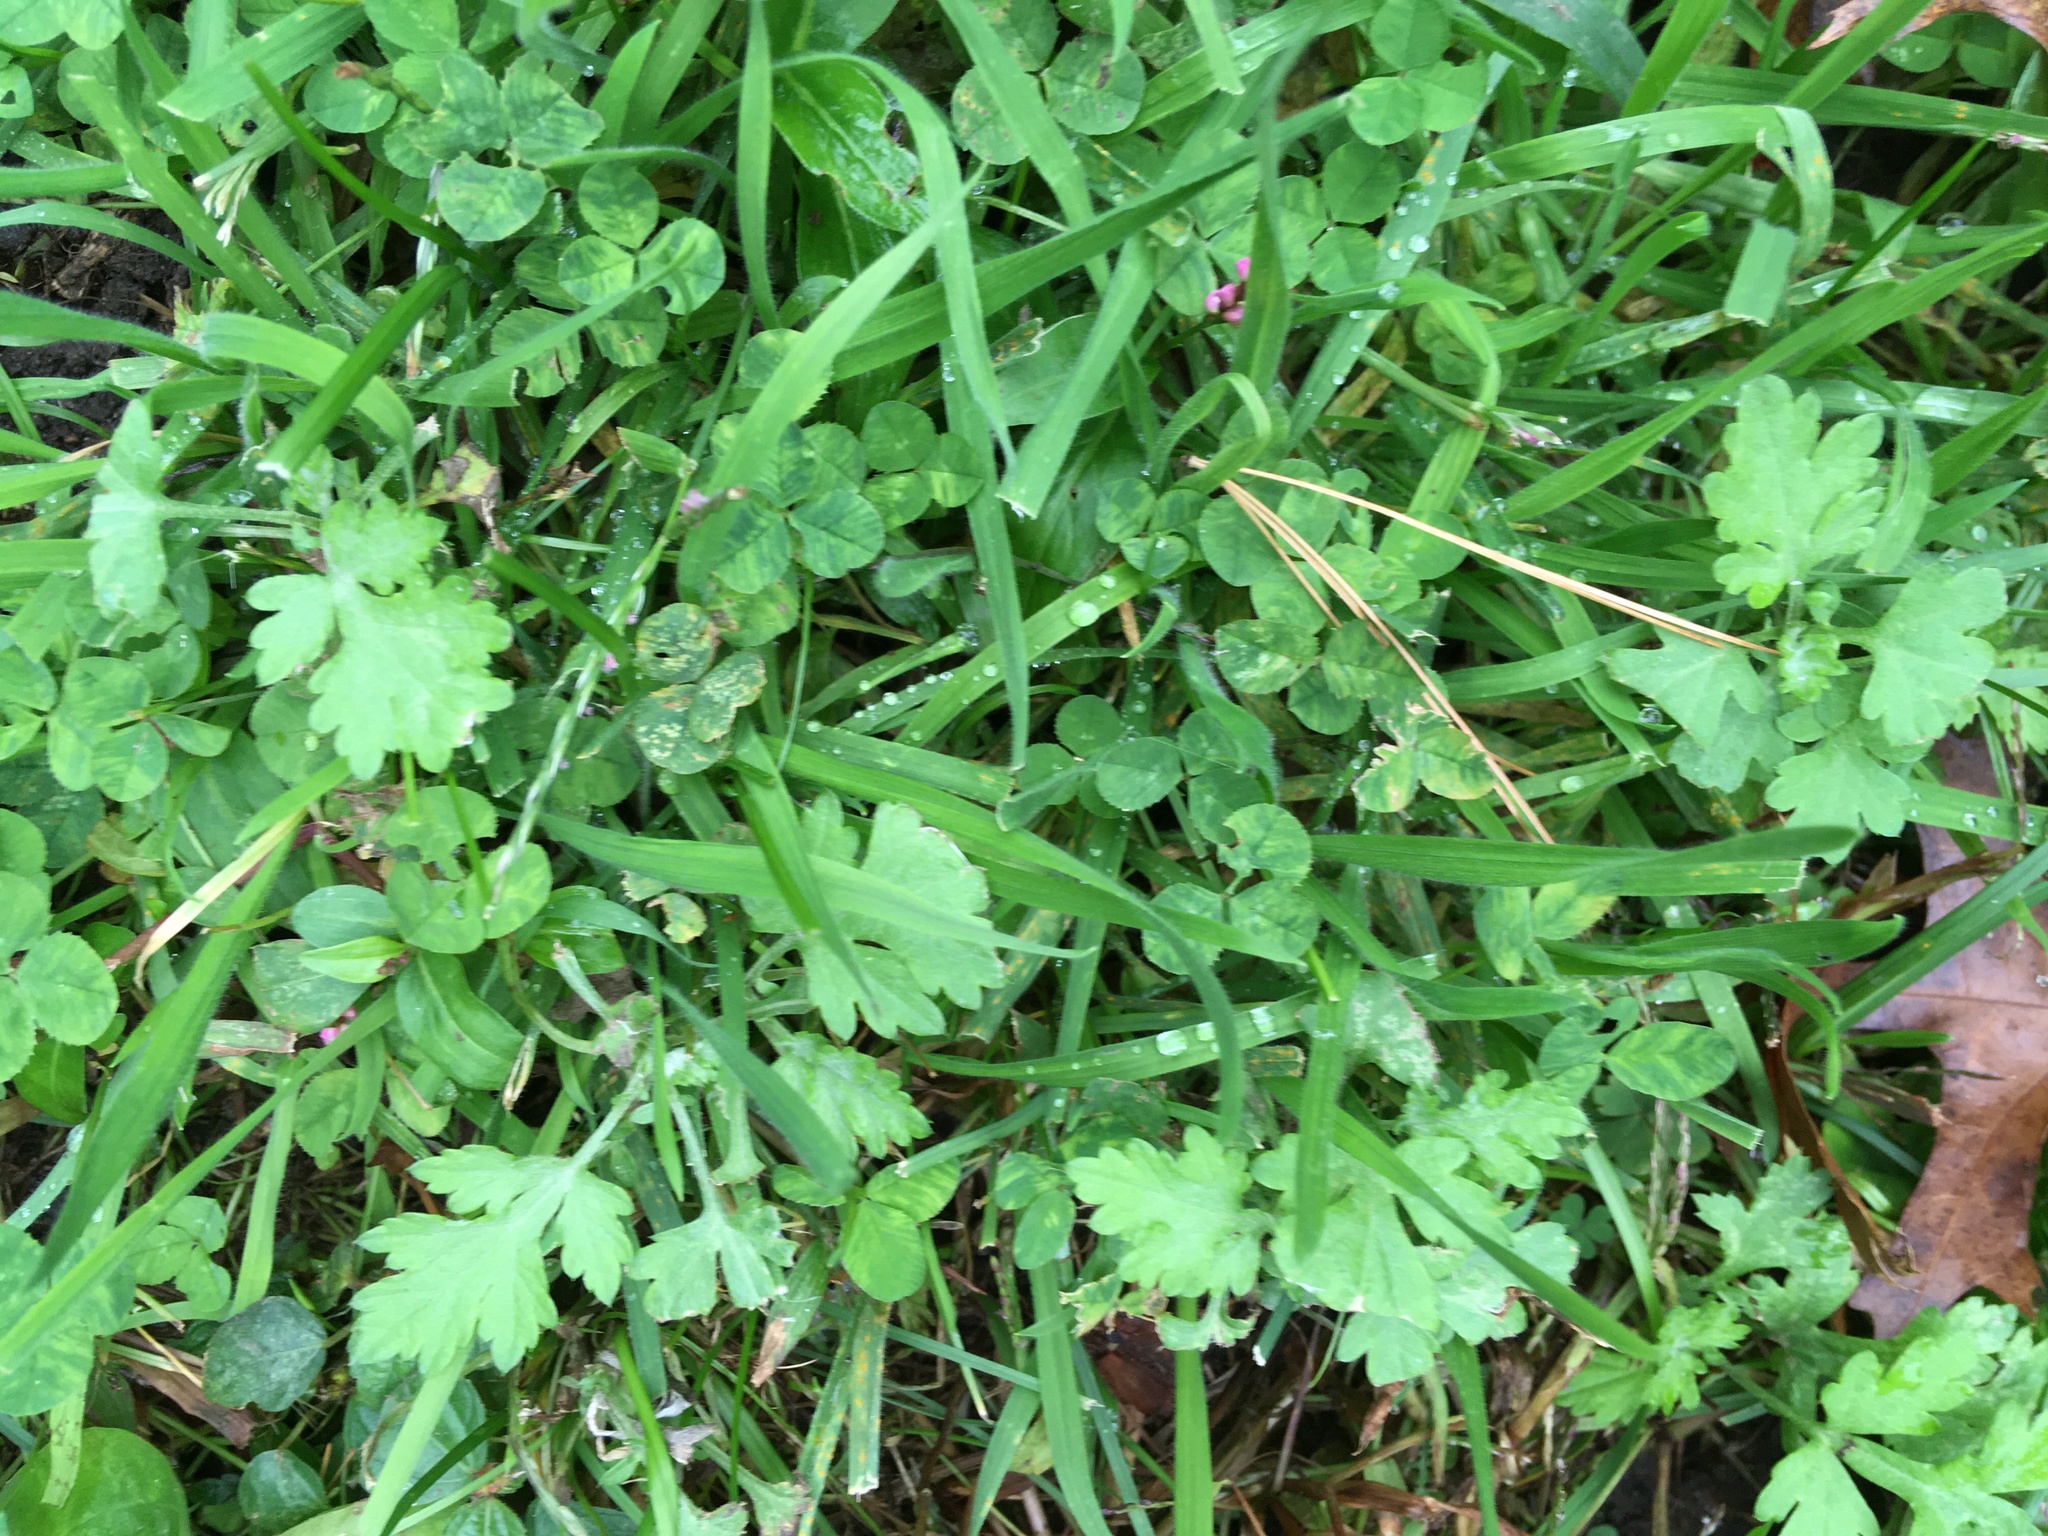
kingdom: Plantae
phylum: Tracheophyta
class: Magnoliopsida
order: Asterales
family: Asteraceae
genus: Artemisia
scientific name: Artemisia vulgaris
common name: Mugwort
